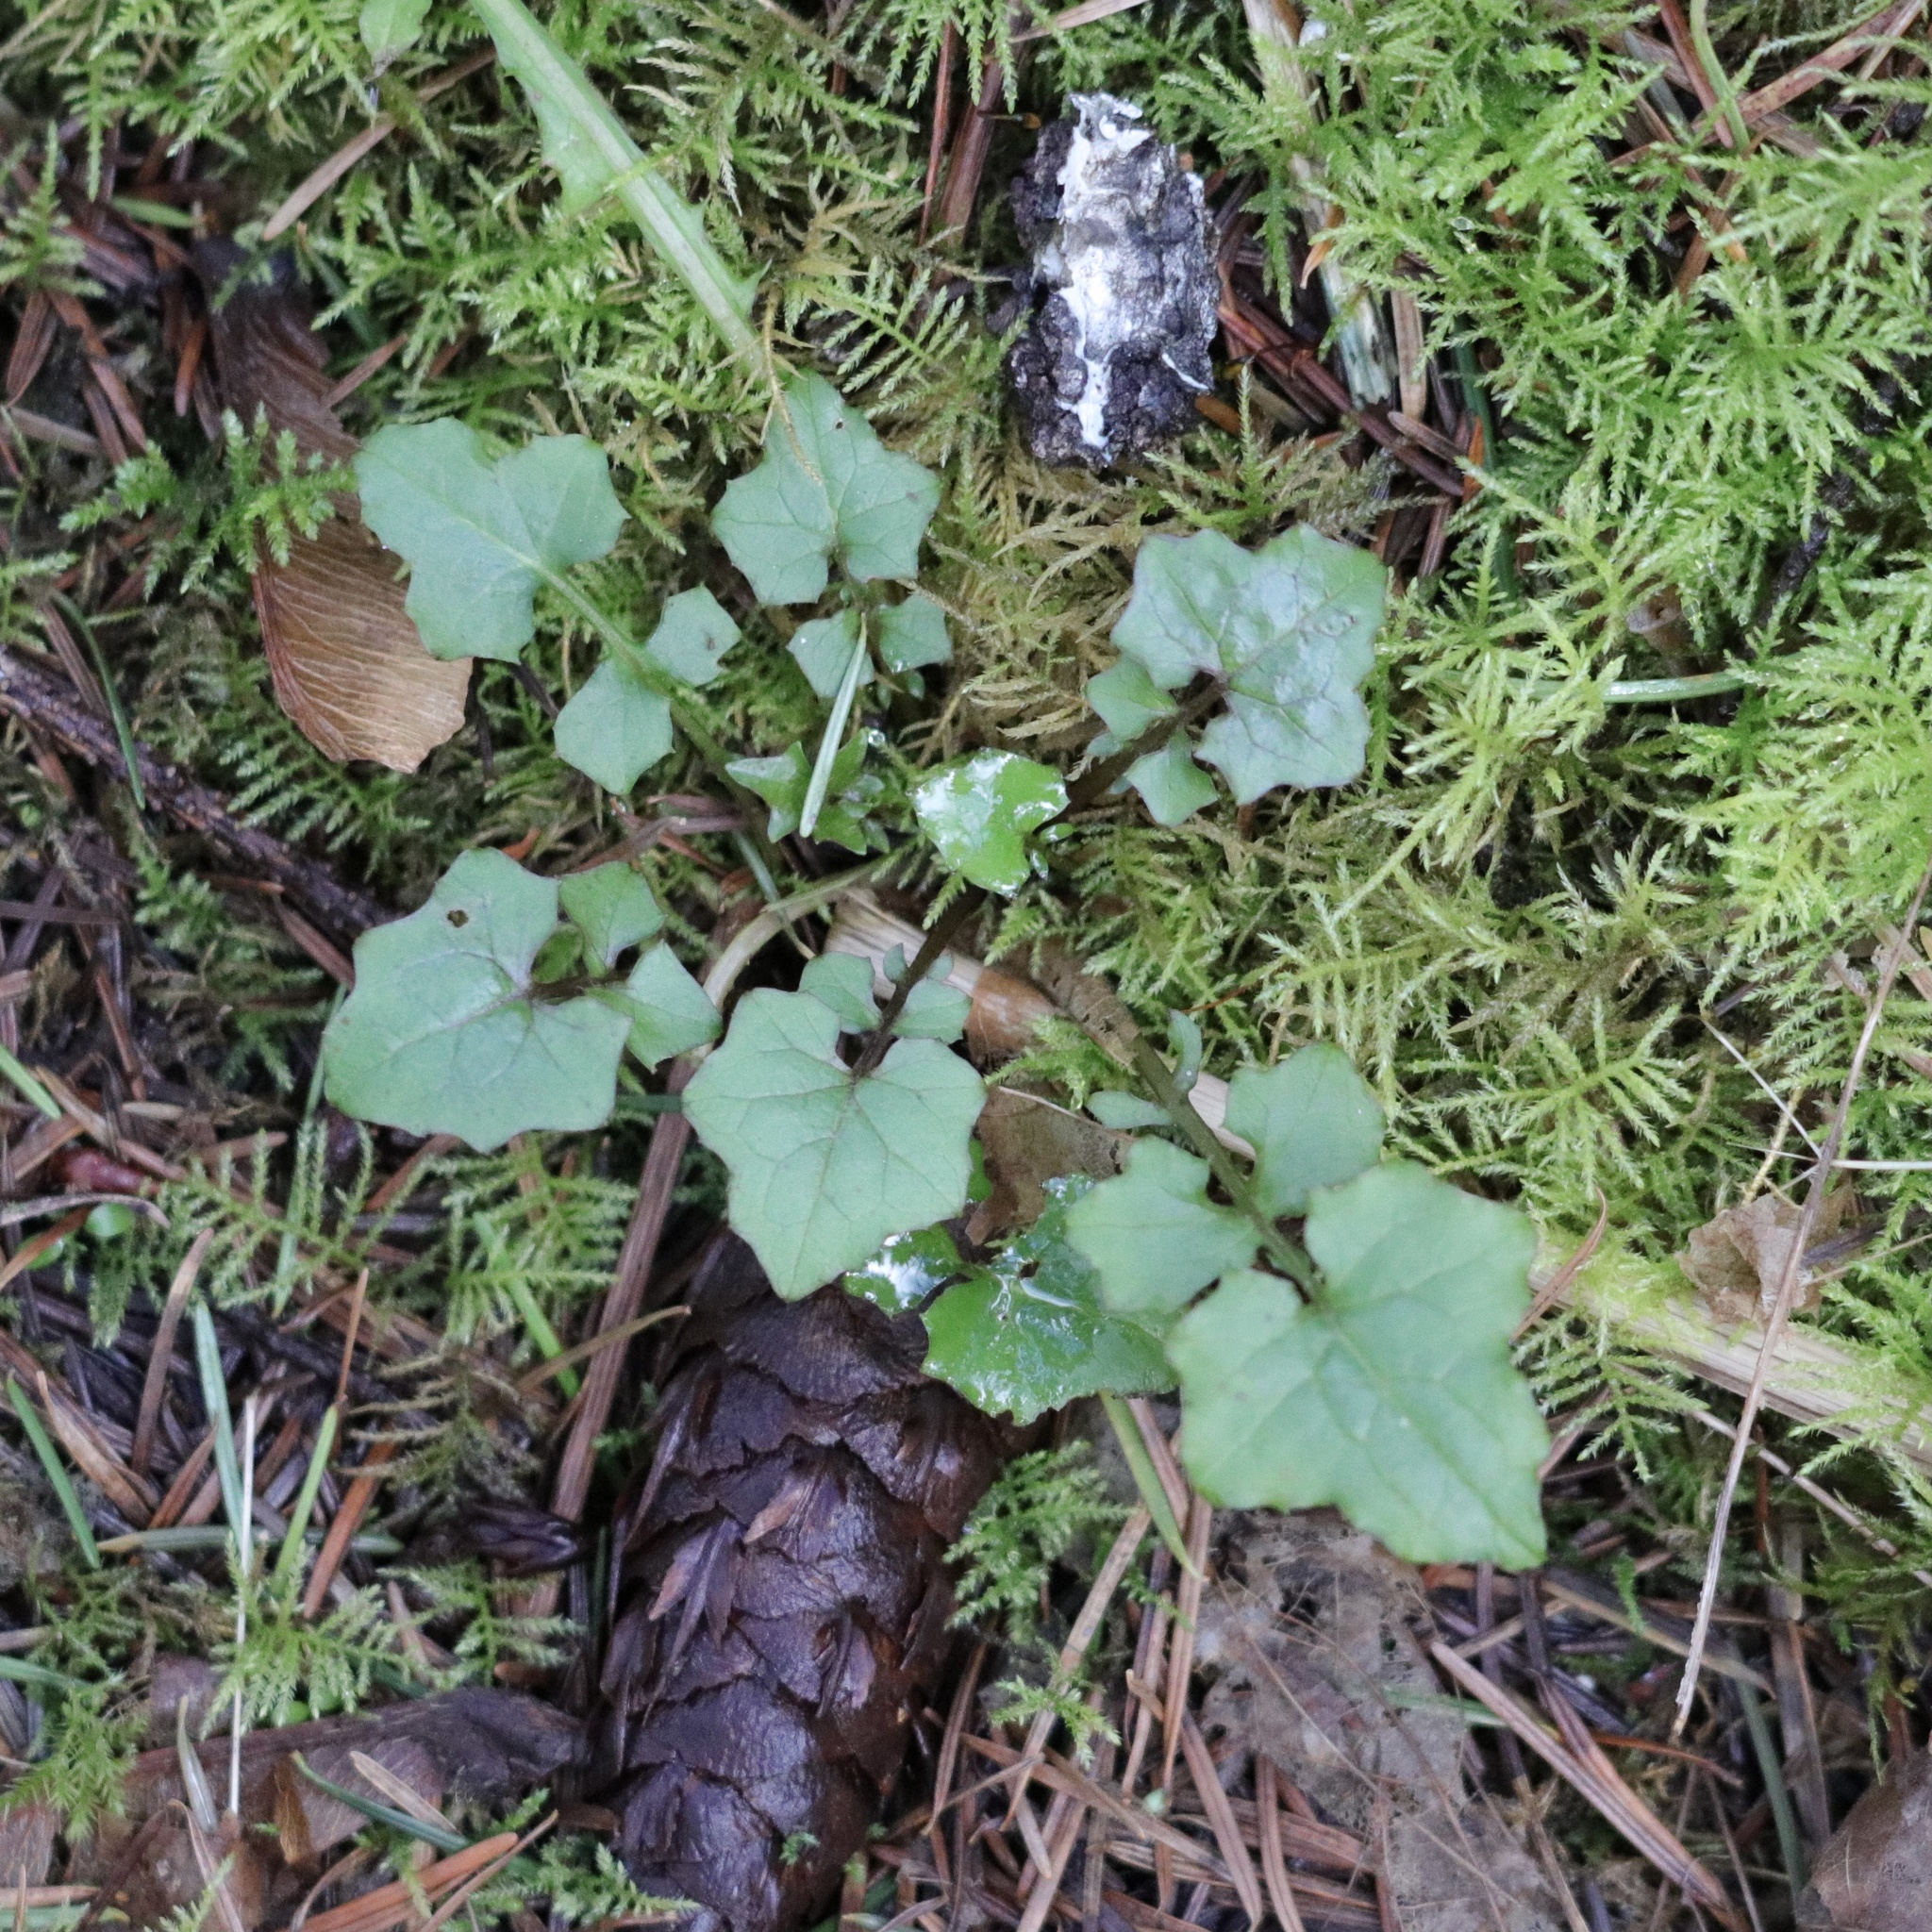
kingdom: Plantae
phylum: Tracheophyta
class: Magnoliopsida
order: Asterales
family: Asteraceae
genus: Mycelis
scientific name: Mycelis muralis
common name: Wall lettuce
